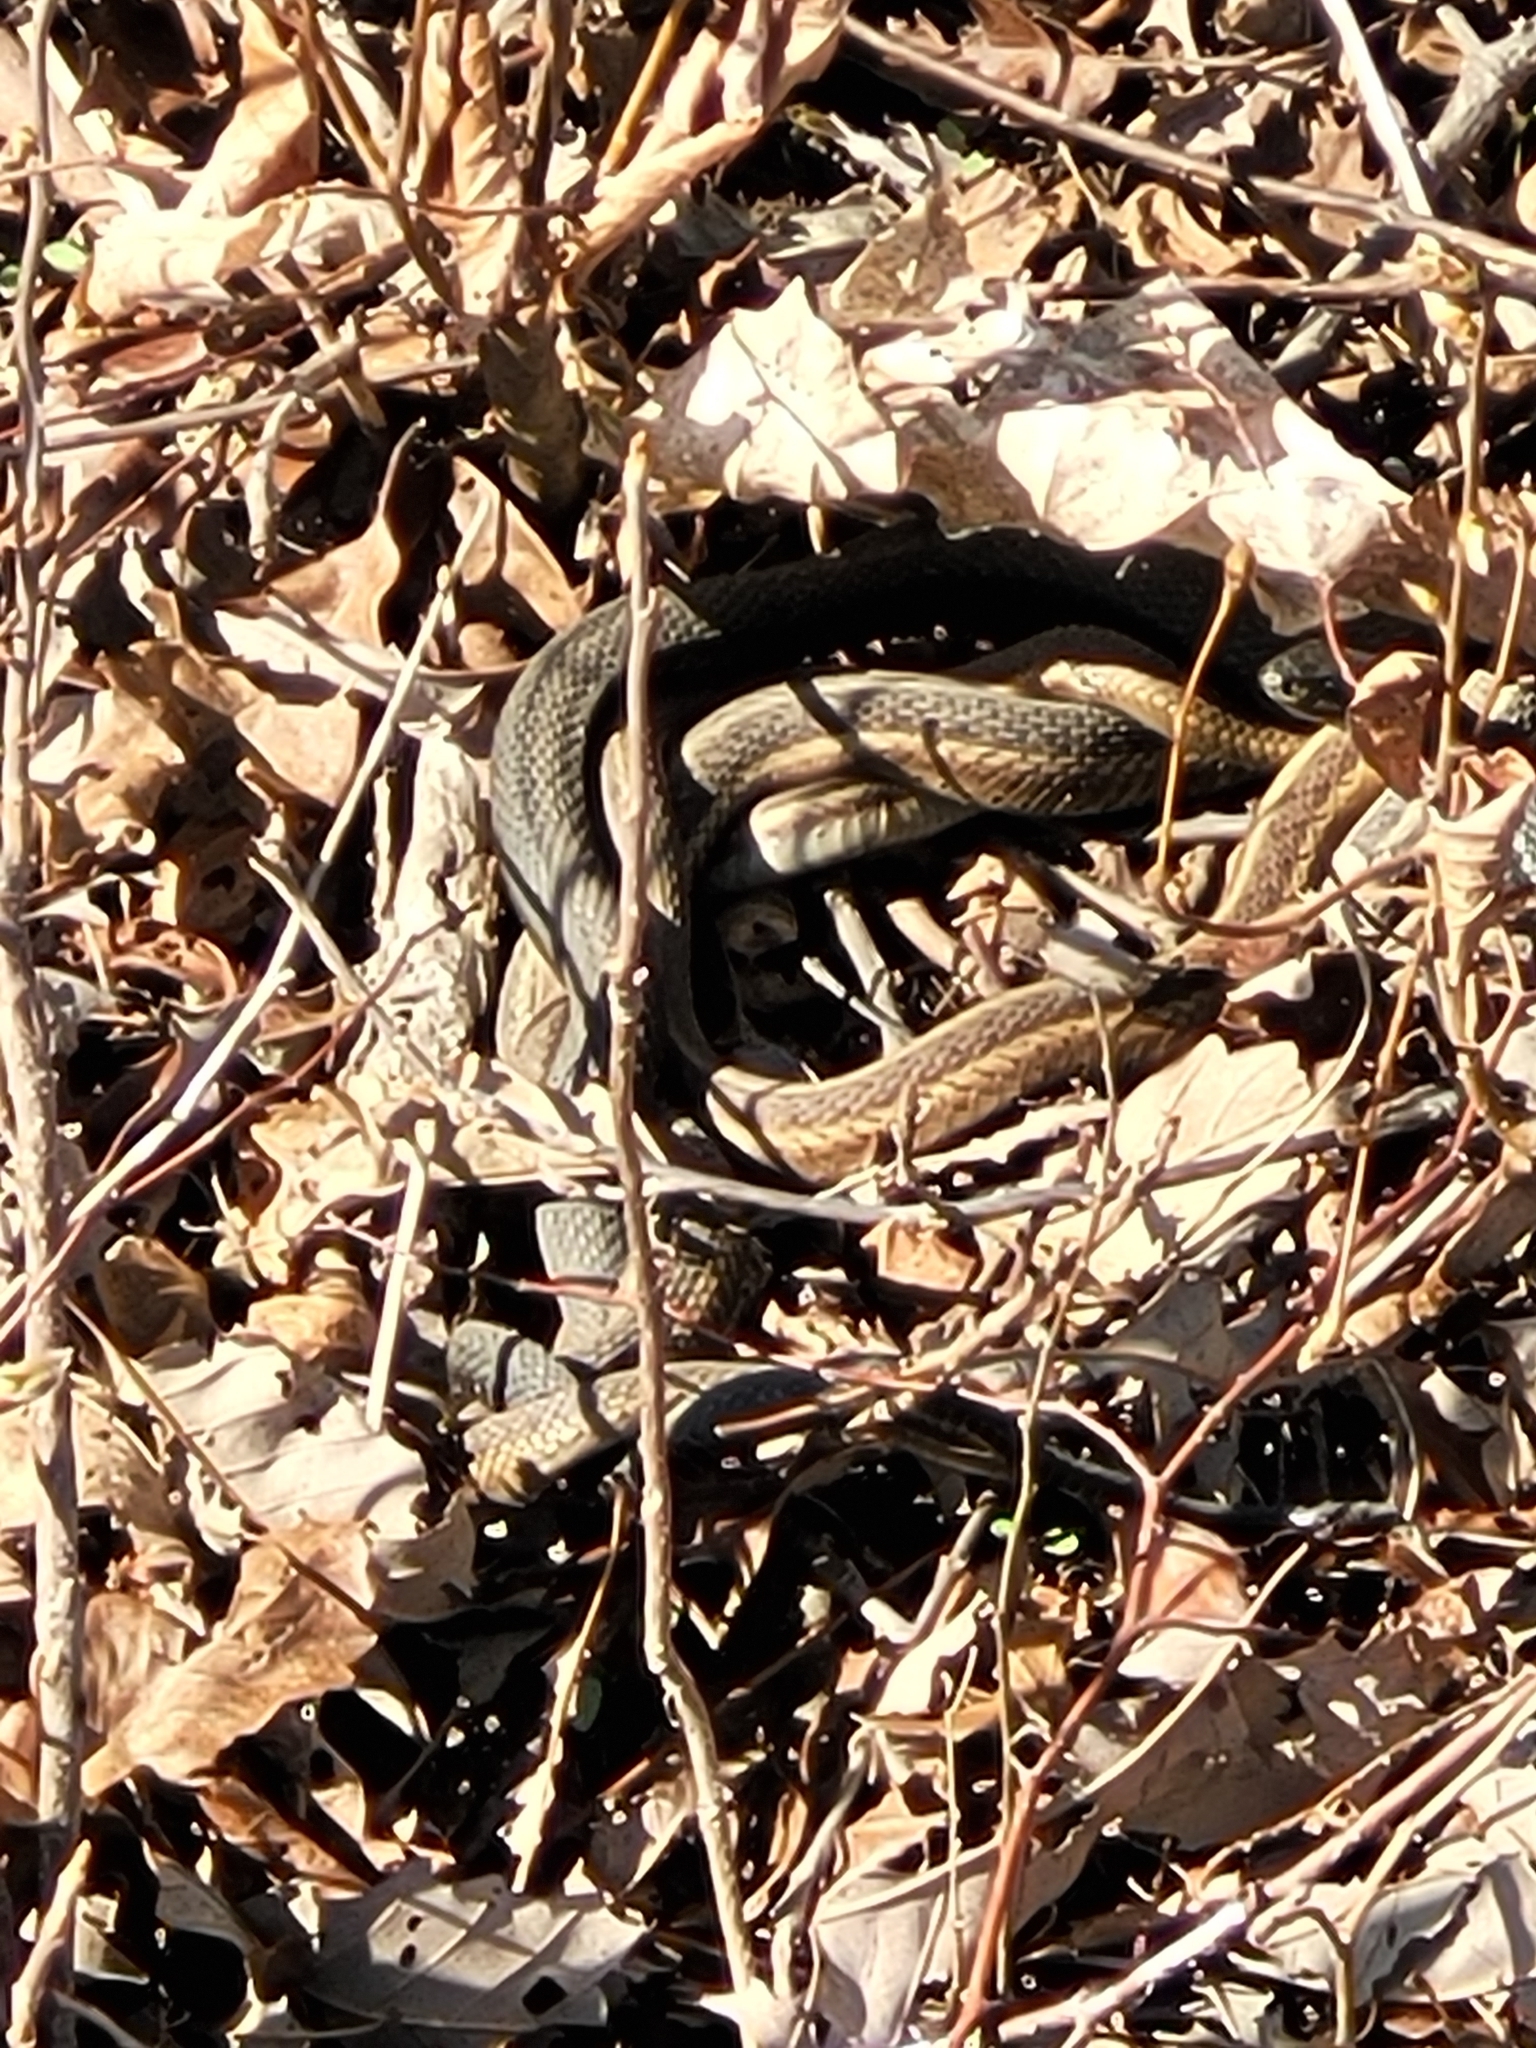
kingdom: Animalia
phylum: Chordata
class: Squamata
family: Colubridae
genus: Thamnophis
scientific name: Thamnophis sirtalis
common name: Common garter snake
